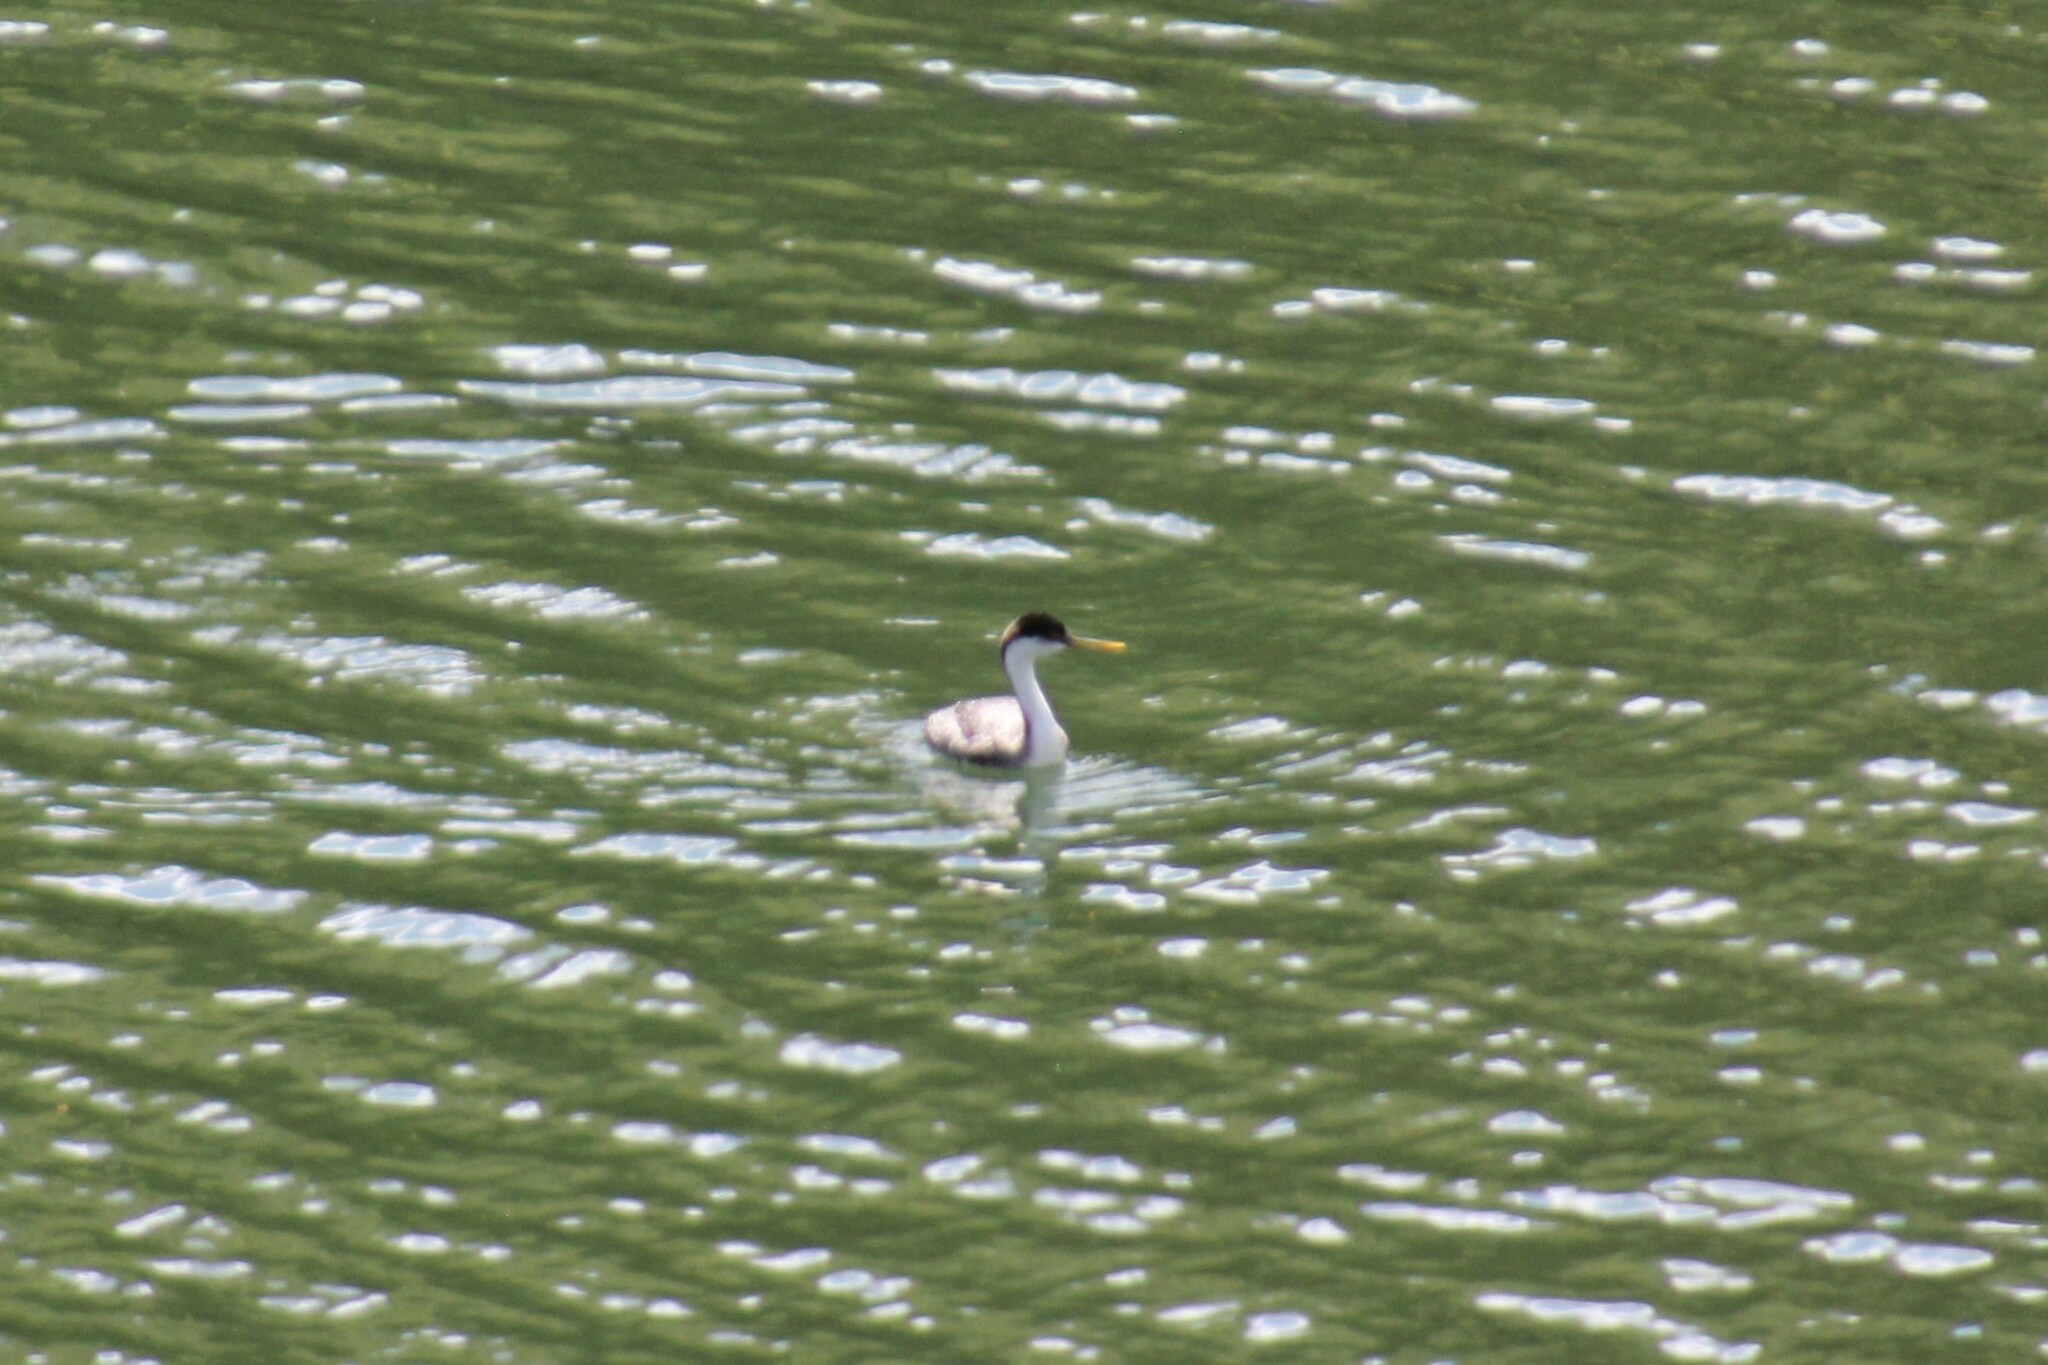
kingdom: Animalia
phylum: Chordata
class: Aves
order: Podicipediformes
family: Podicipedidae
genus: Aechmophorus
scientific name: Aechmophorus occidentalis
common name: Western grebe
